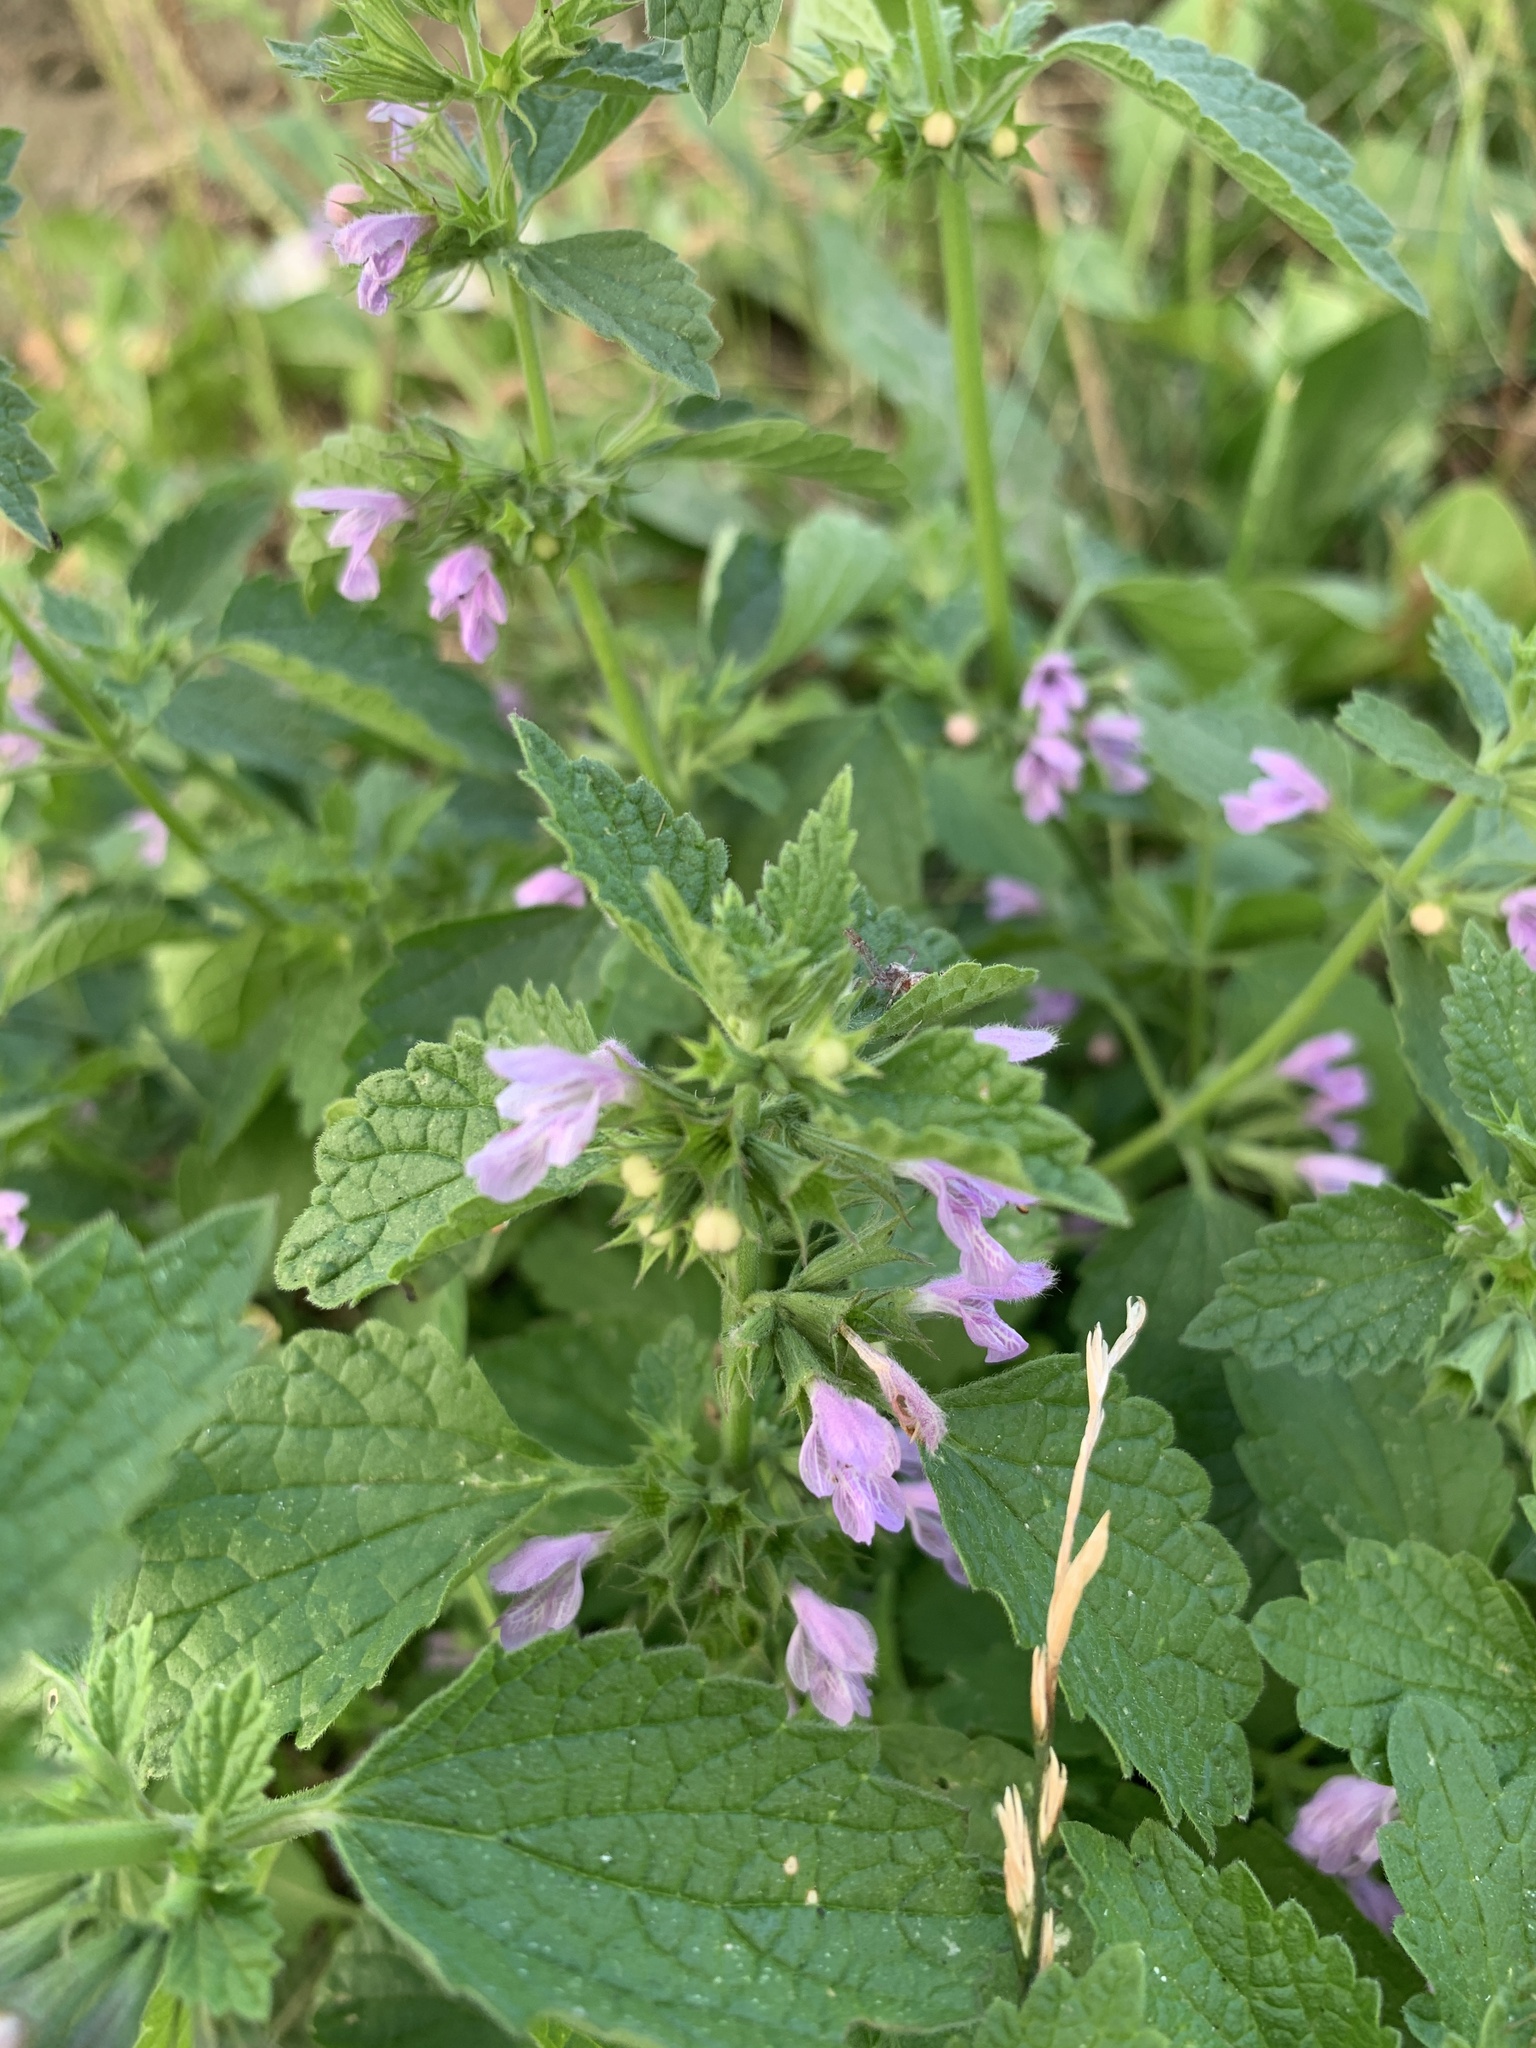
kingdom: Plantae
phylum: Tracheophyta
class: Magnoliopsida
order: Lamiales
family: Lamiaceae
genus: Ballota
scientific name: Ballota nigra
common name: Black horehound
